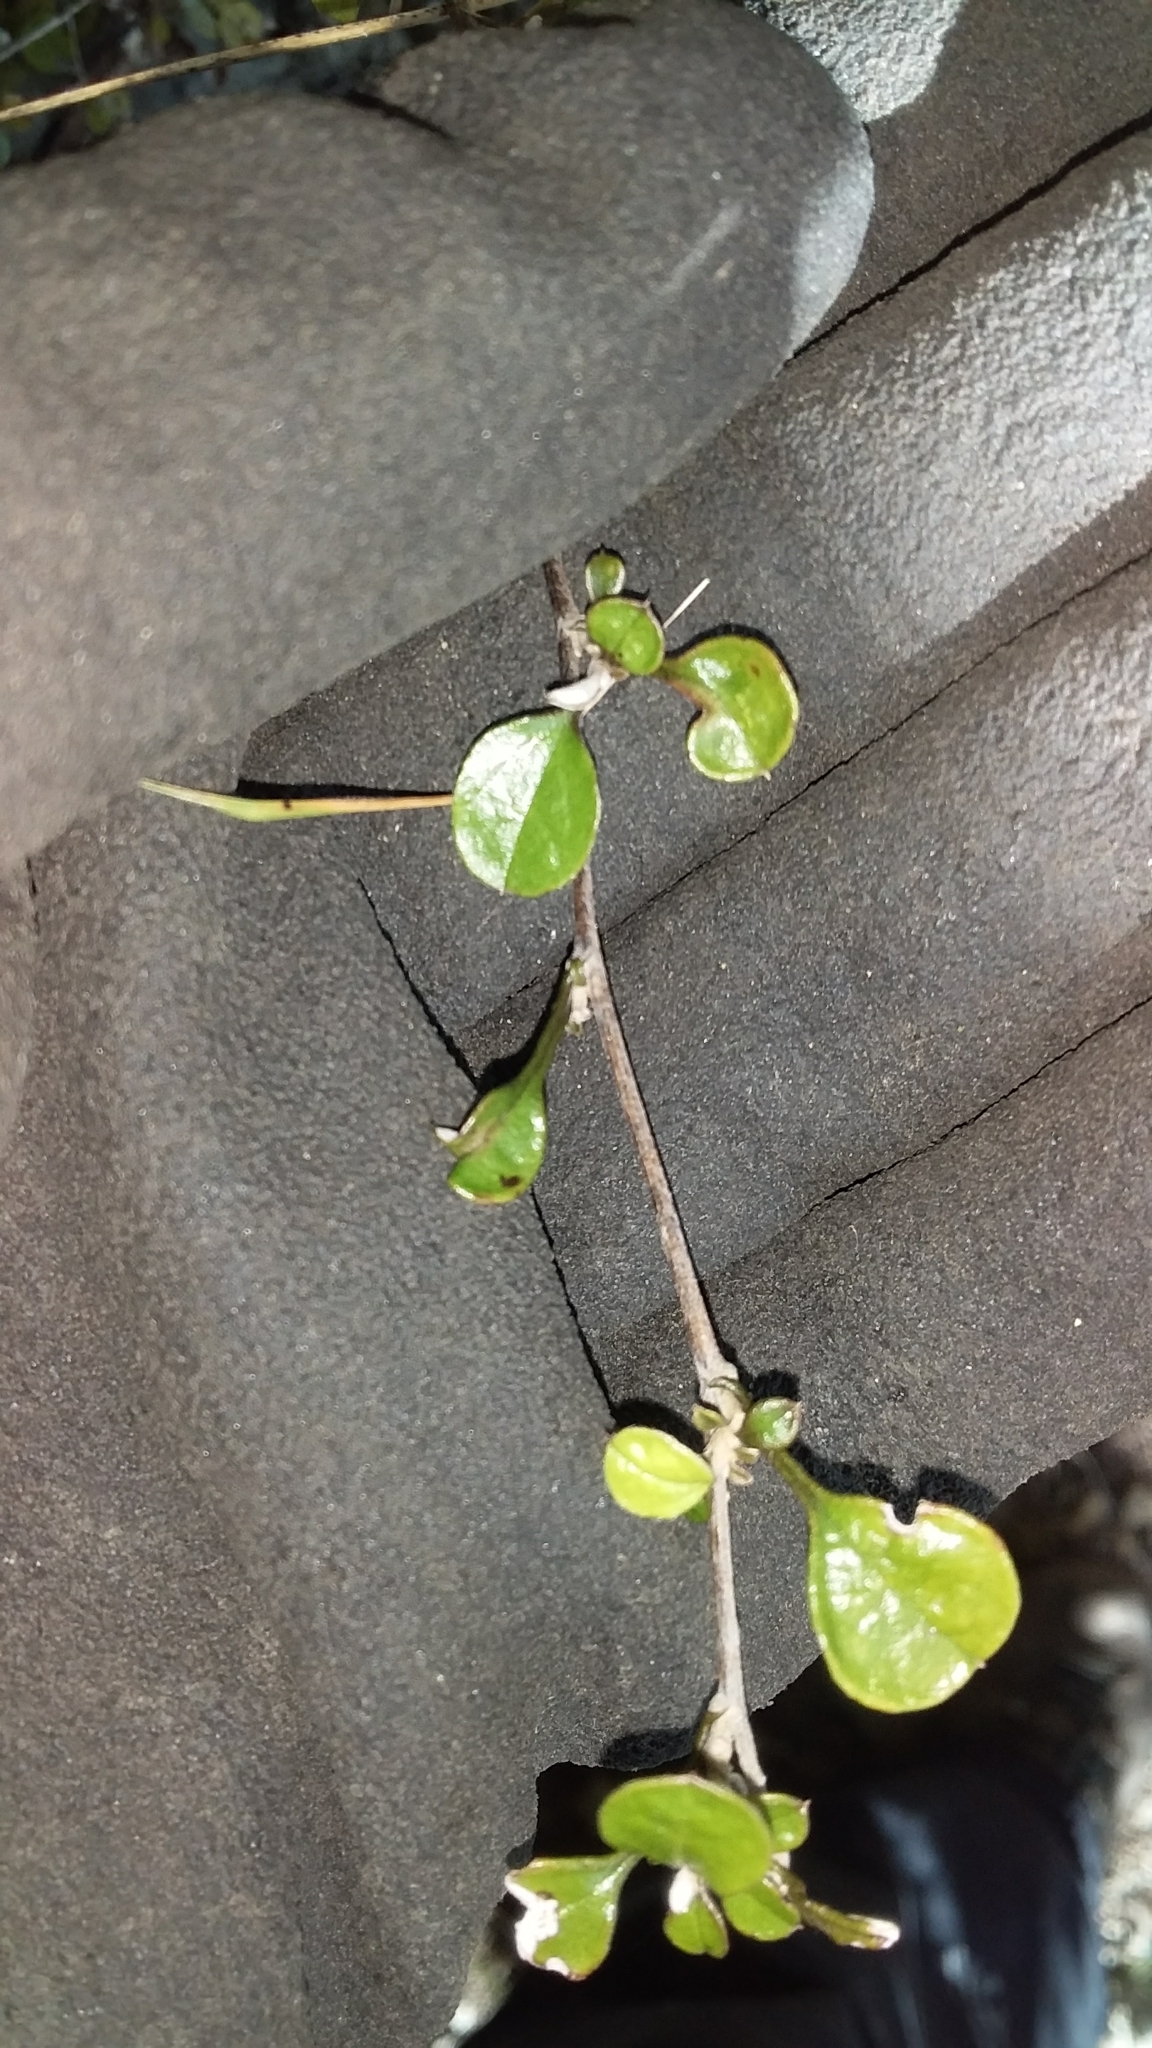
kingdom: Plantae
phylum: Tracheophyta
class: Magnoliopsida
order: Asterales
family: Asteraceae
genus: Ozothamnus
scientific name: Ozothamnus glomeratus
